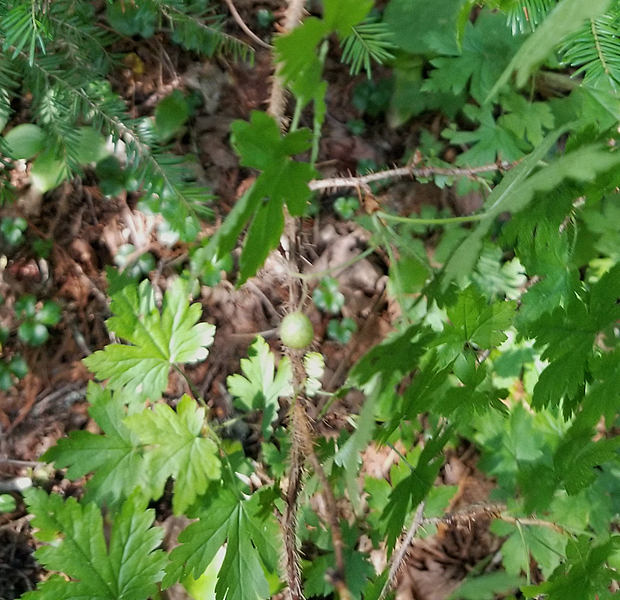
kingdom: Plantae
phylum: Tracheophyta
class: Magnoliopsida
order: Saxifragales
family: Grossulariaceae
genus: Ribes
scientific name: Ribes lacustre
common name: Black gooseberry
